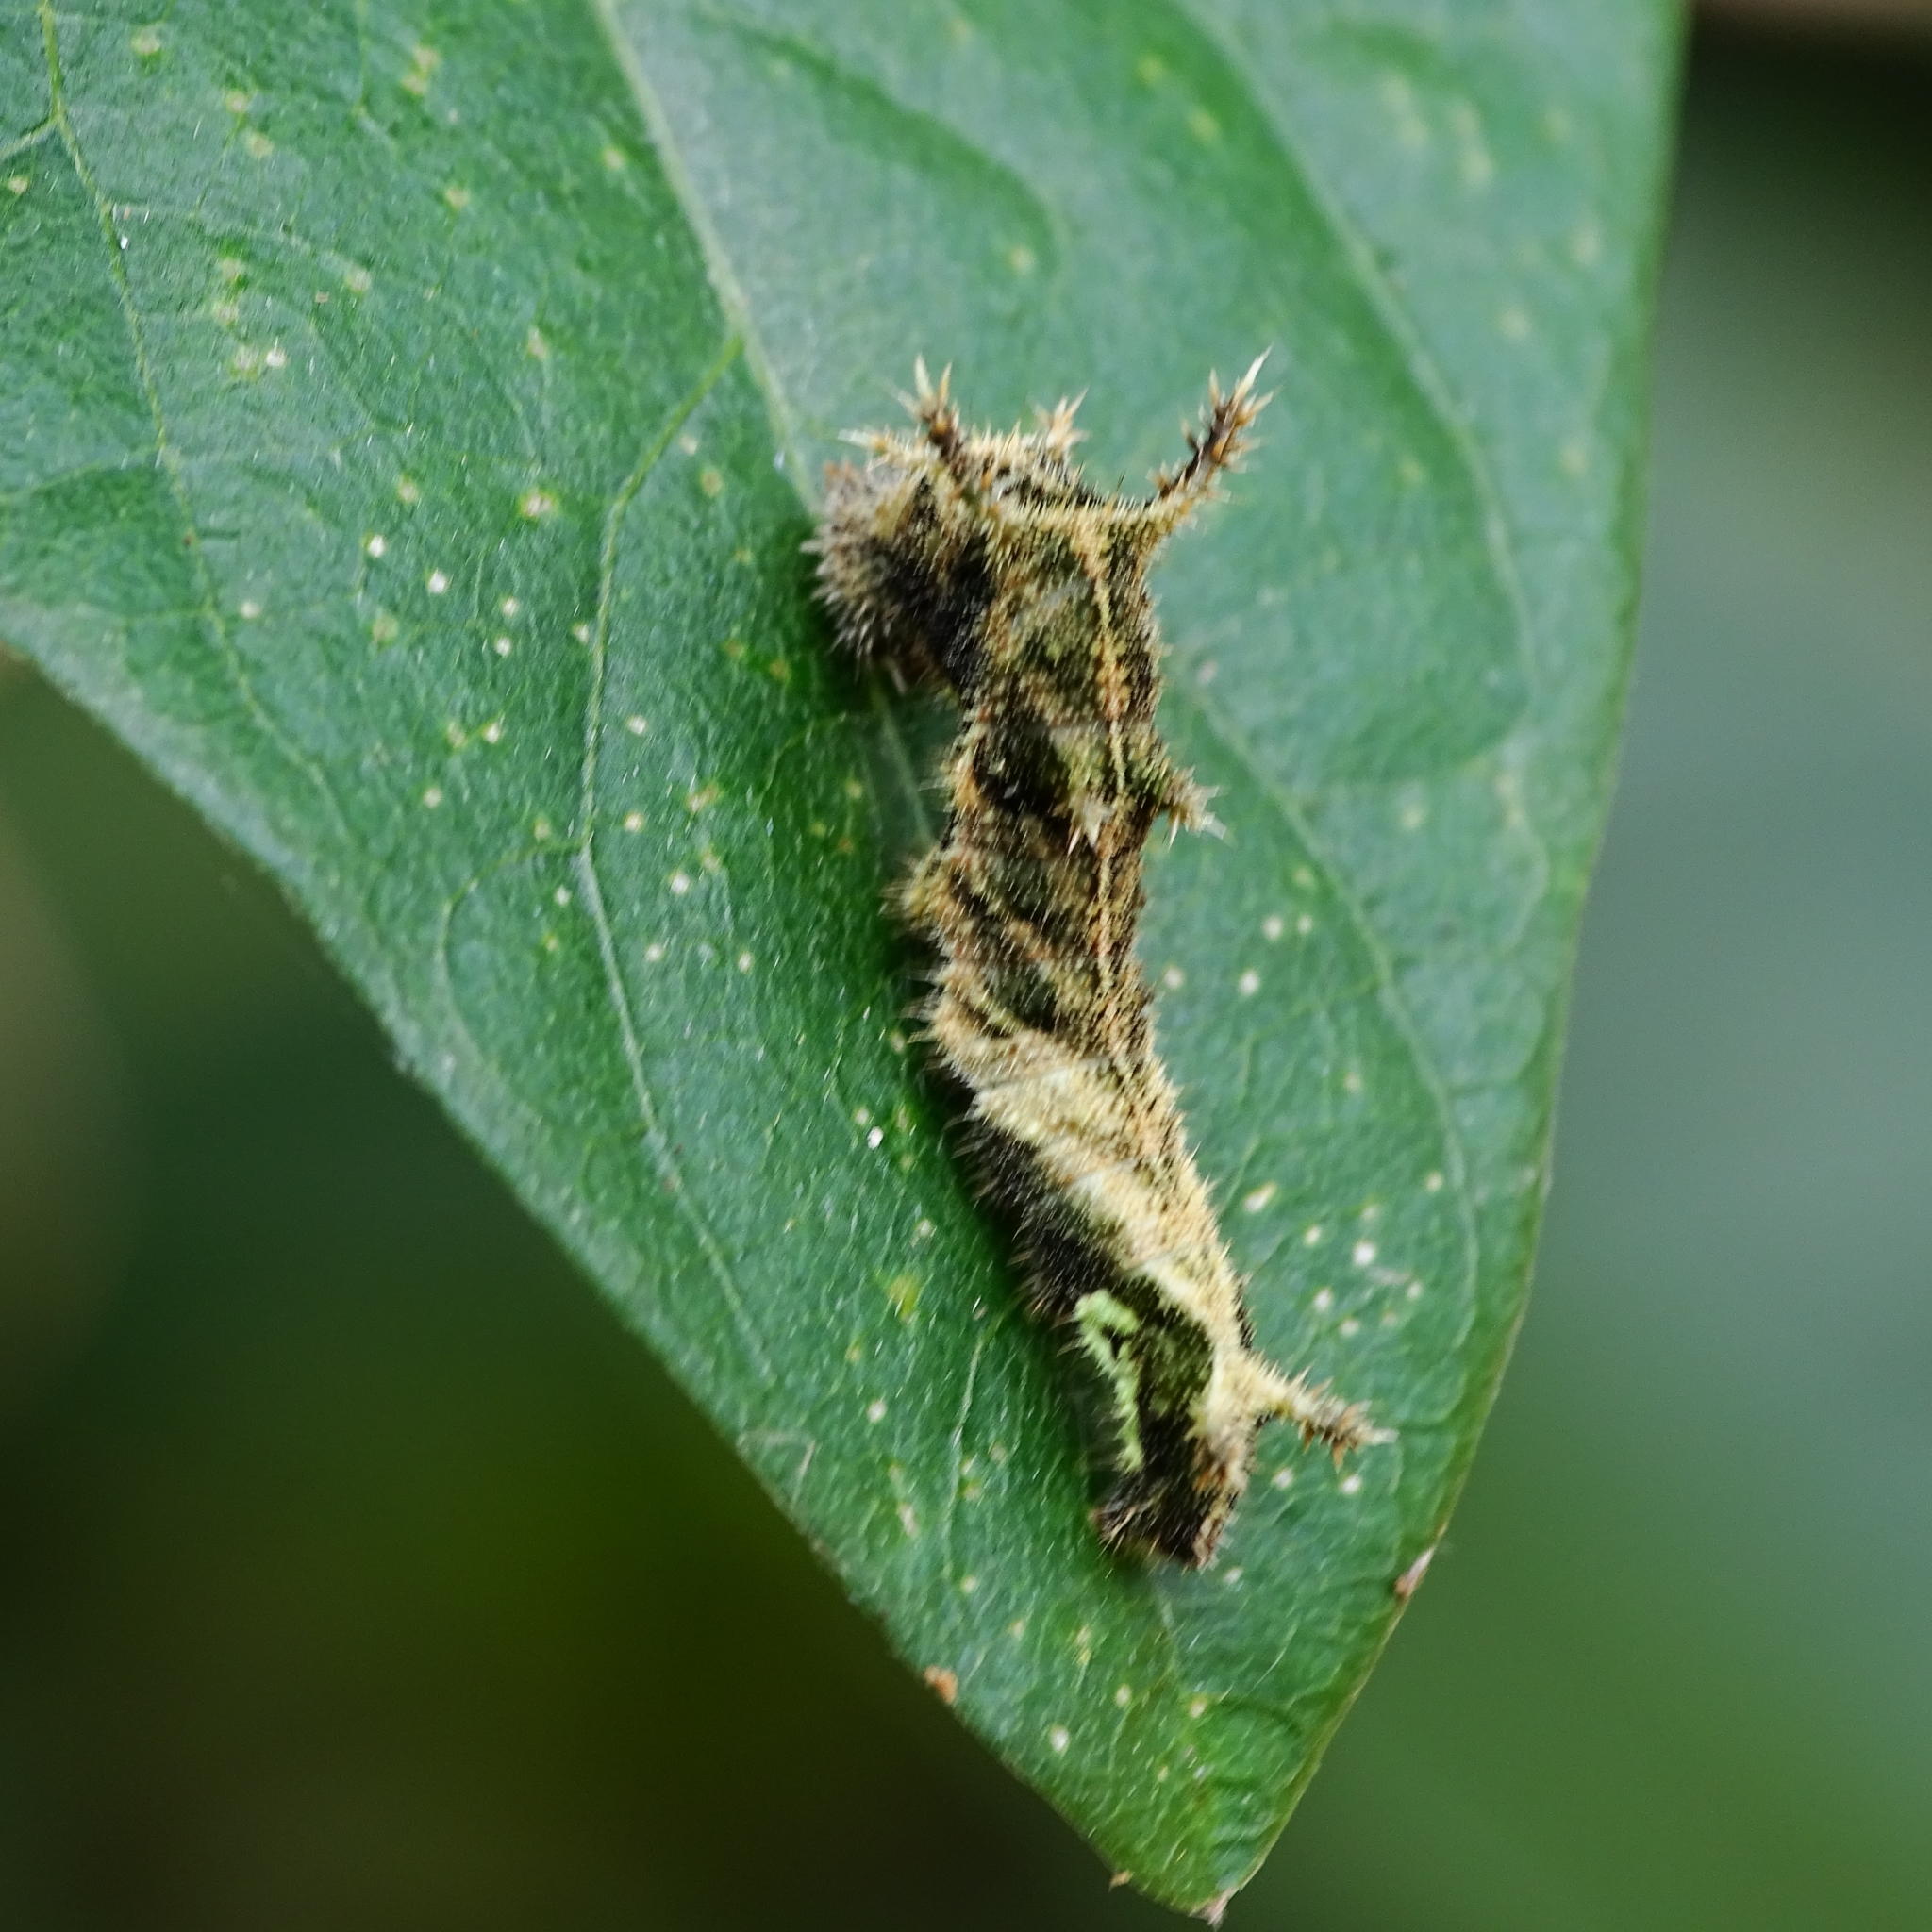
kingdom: Animalia
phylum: Arthropoda
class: Insecta
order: Lepidoptera
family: Nymphalidae
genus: Neptis
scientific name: Neptis hylas
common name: Common sailer
